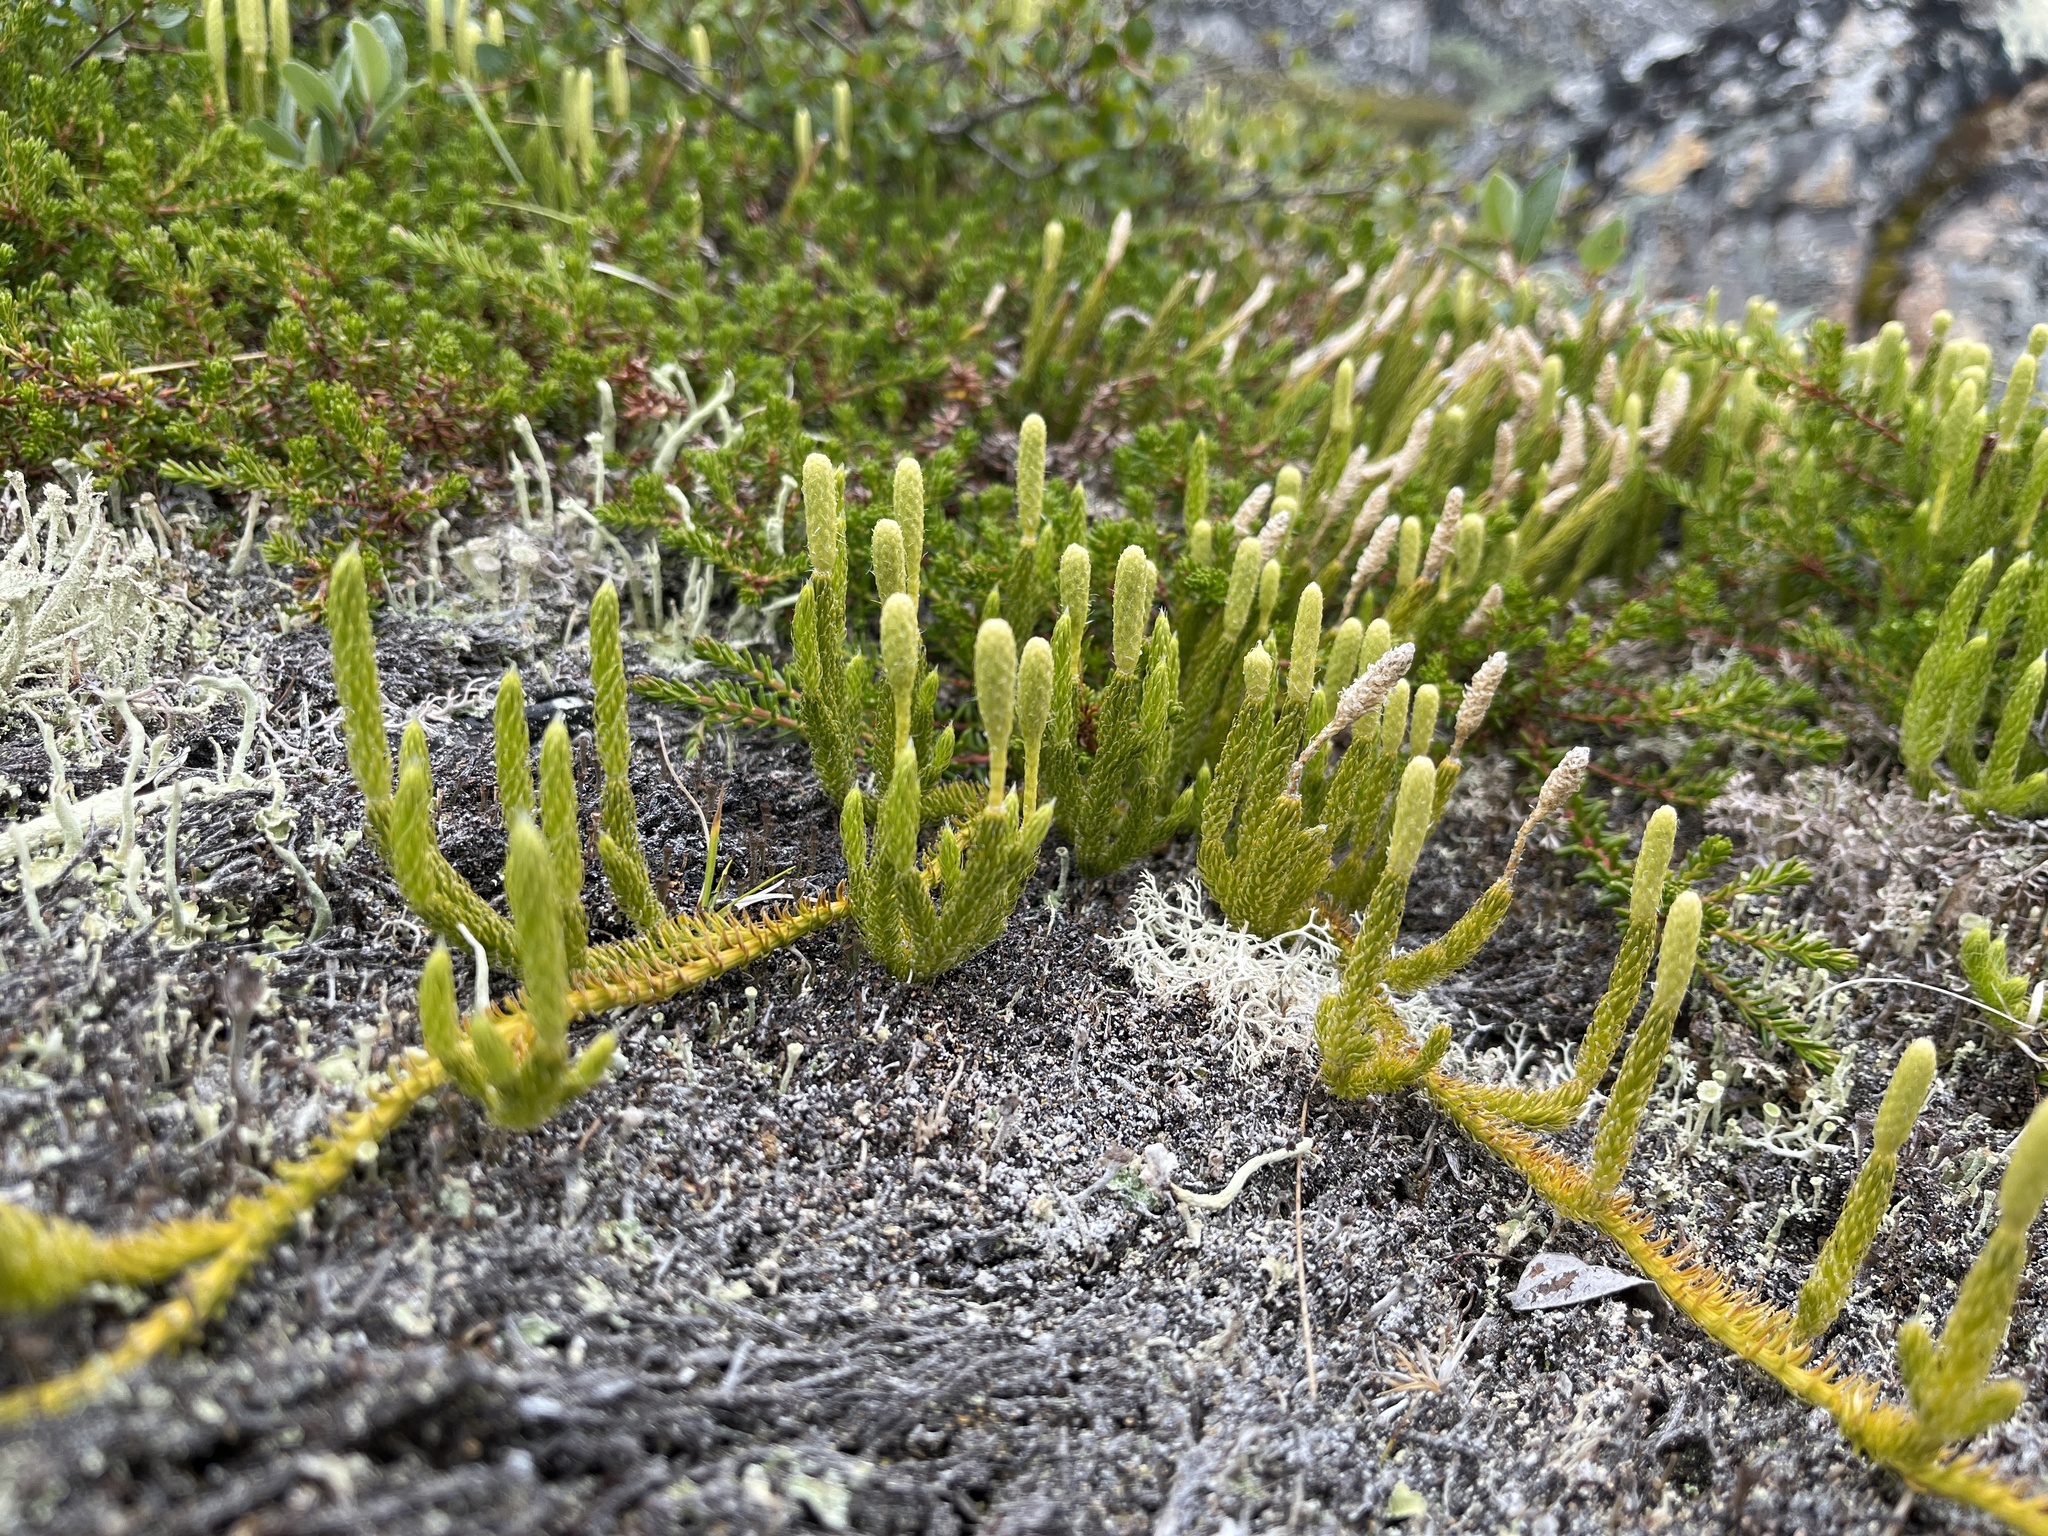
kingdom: Plantae
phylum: Tracheophyta
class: Lycopodiopsida
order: Lycopodiales
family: Lycopodiaceae
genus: Lycopodium
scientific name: Lycopodium clavatum
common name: Stag's-horn clubmoss
